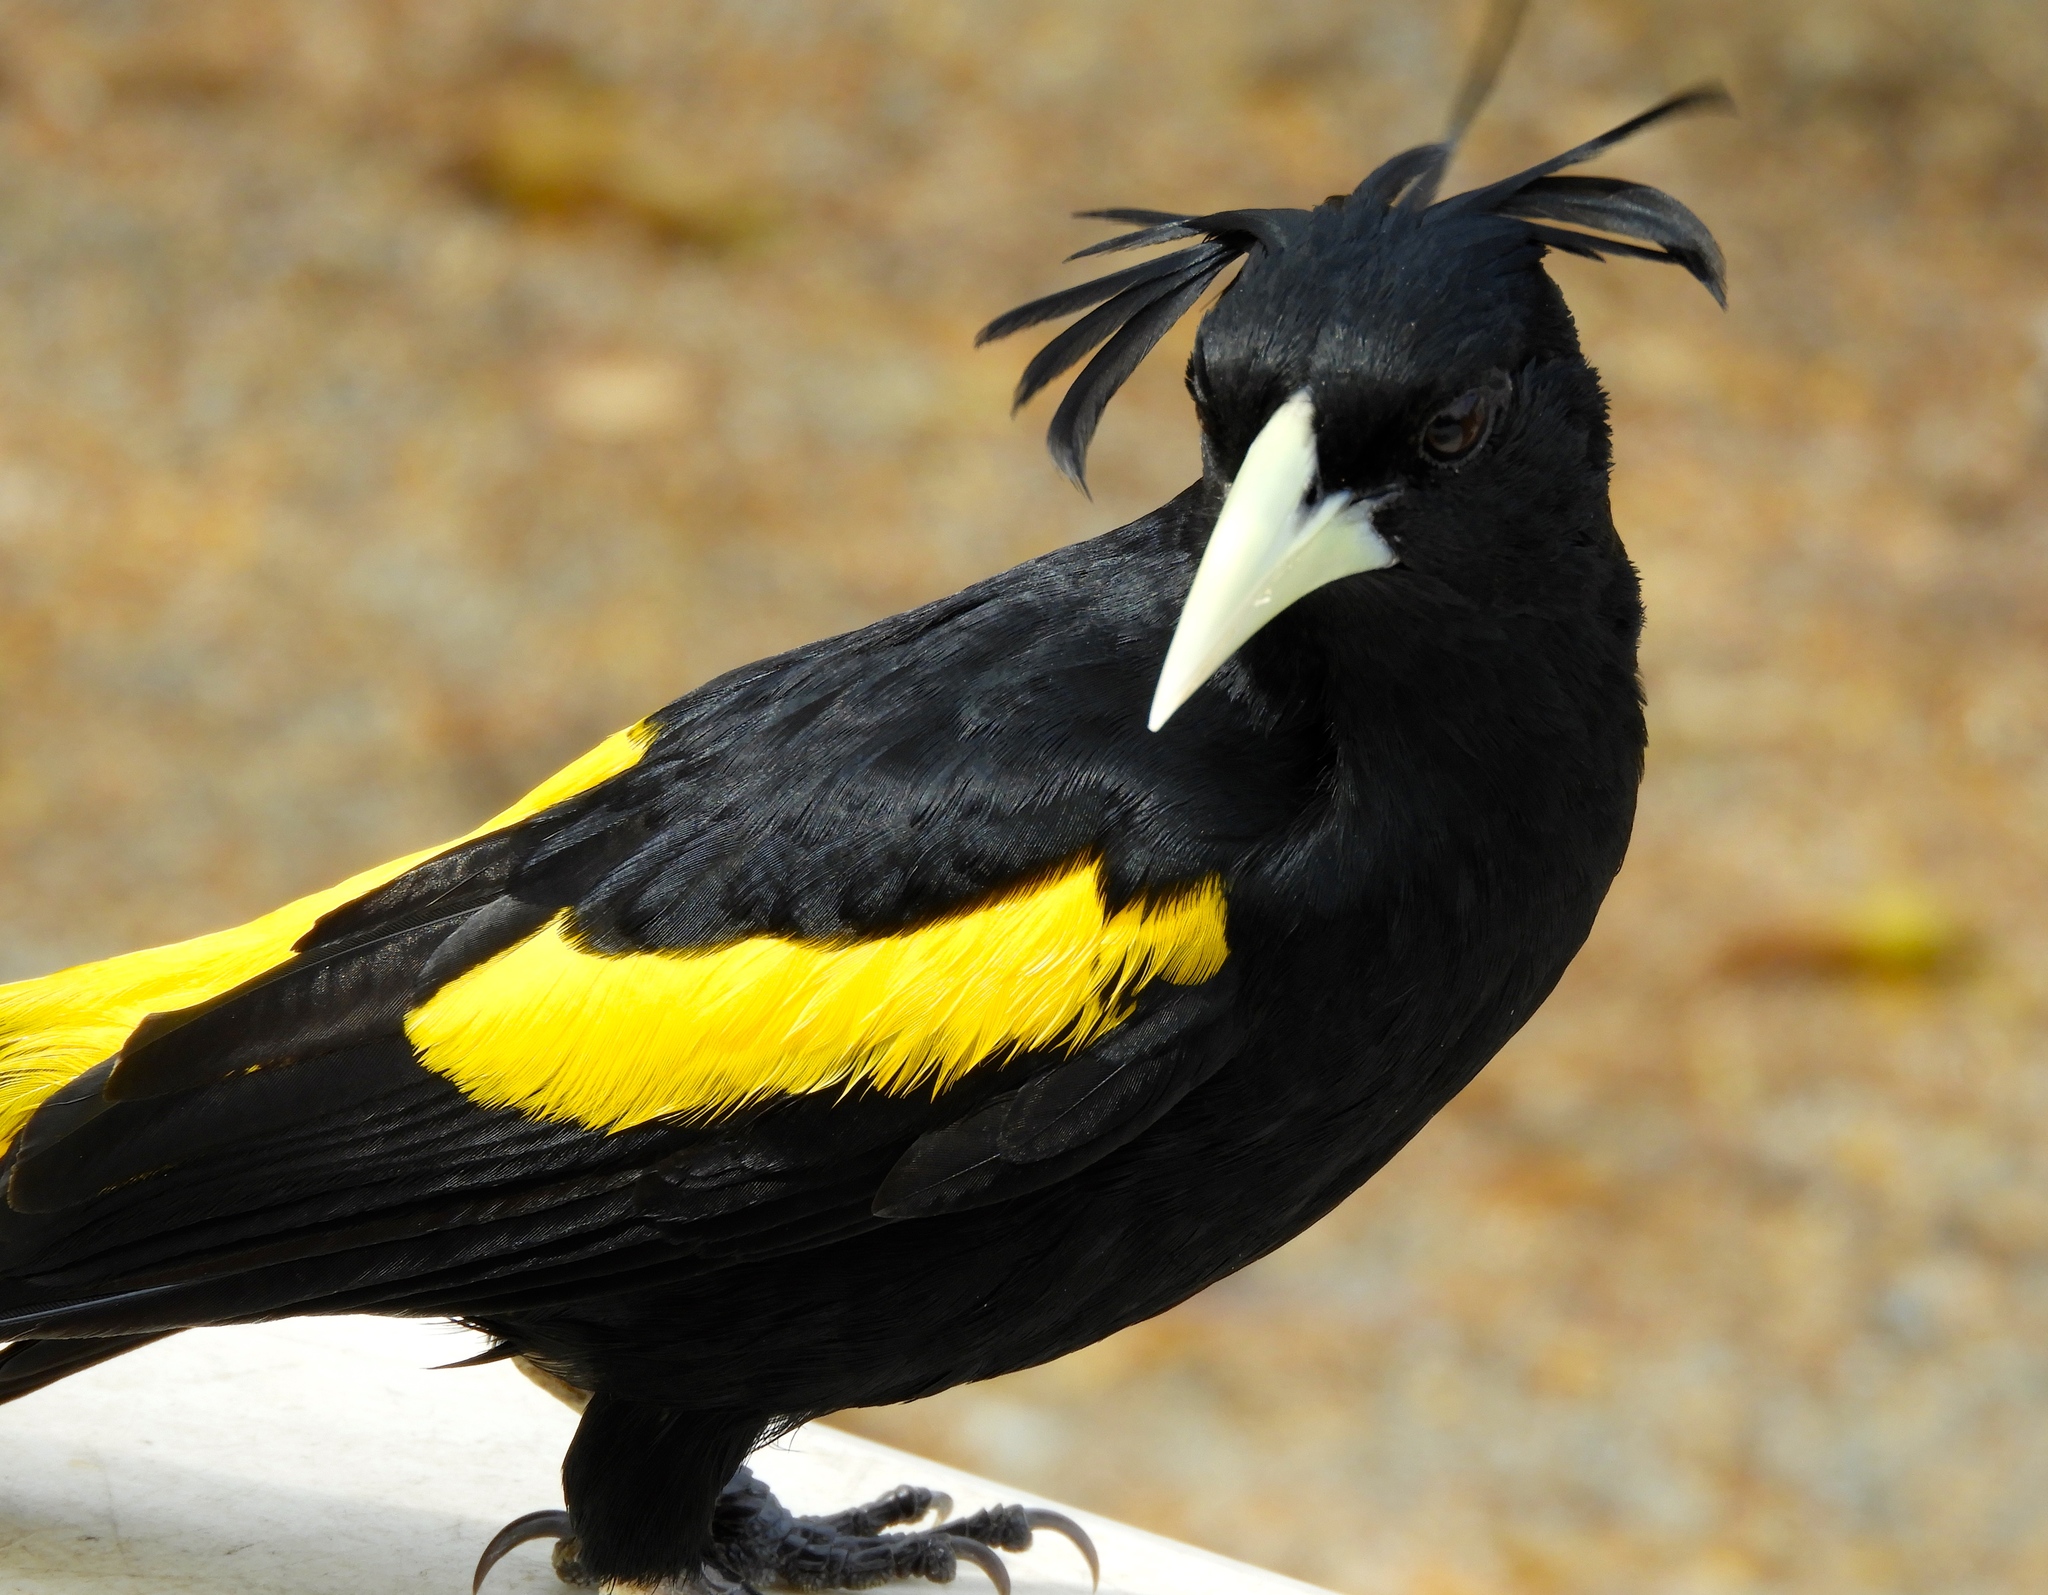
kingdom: Animalia
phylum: Chordata
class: Aves
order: Passeriformes
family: Icteridae
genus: Cacicus
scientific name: Cacicus melanicterus
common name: Yellow-winged cacique
